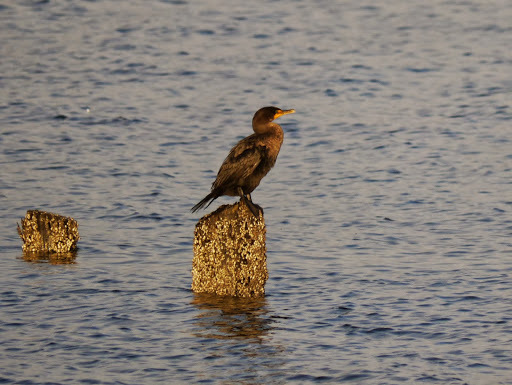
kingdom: Animalia
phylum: Chordata
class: Aves
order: Suliformes
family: Phalacrocoracidae
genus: Phalacrocorax
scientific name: Phalacrocorax auritus
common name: Double-crested cormorant
